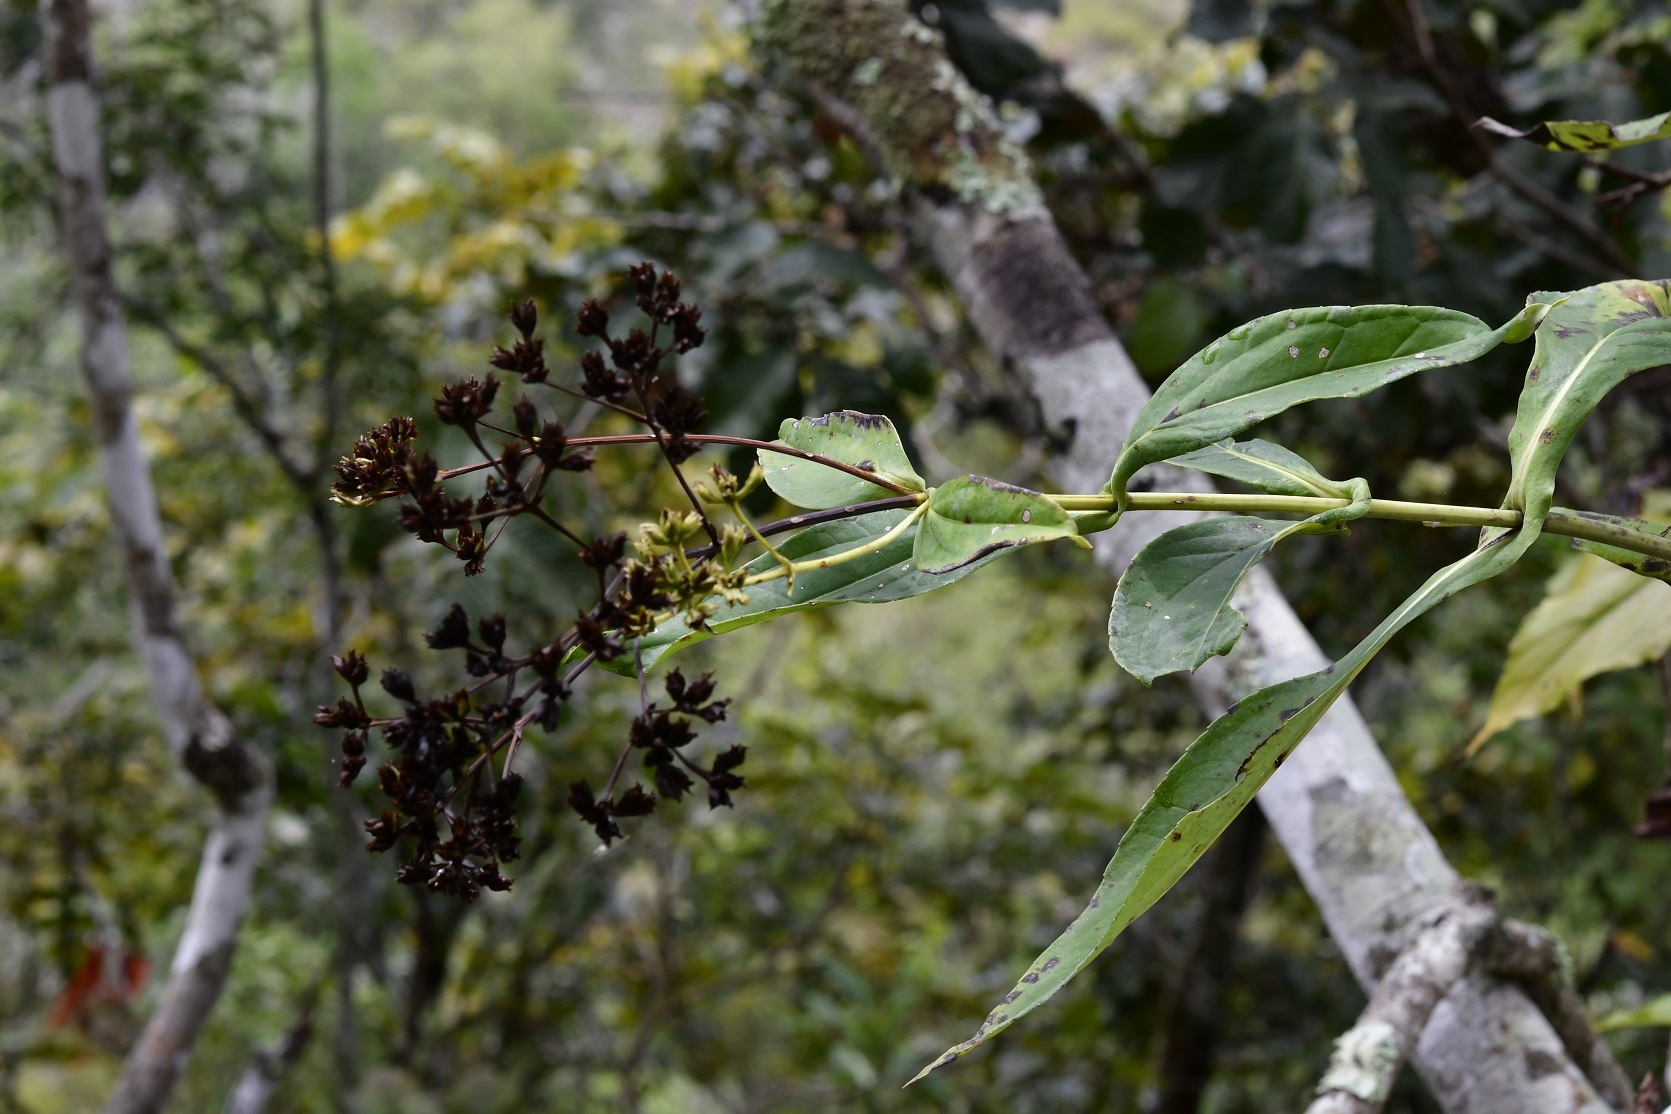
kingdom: Plantae
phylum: Tracheophyta
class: Magnoliopsida
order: Asterales
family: Asteraceae
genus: Desmanthodium
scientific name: Desmanthodium perfoliatum
